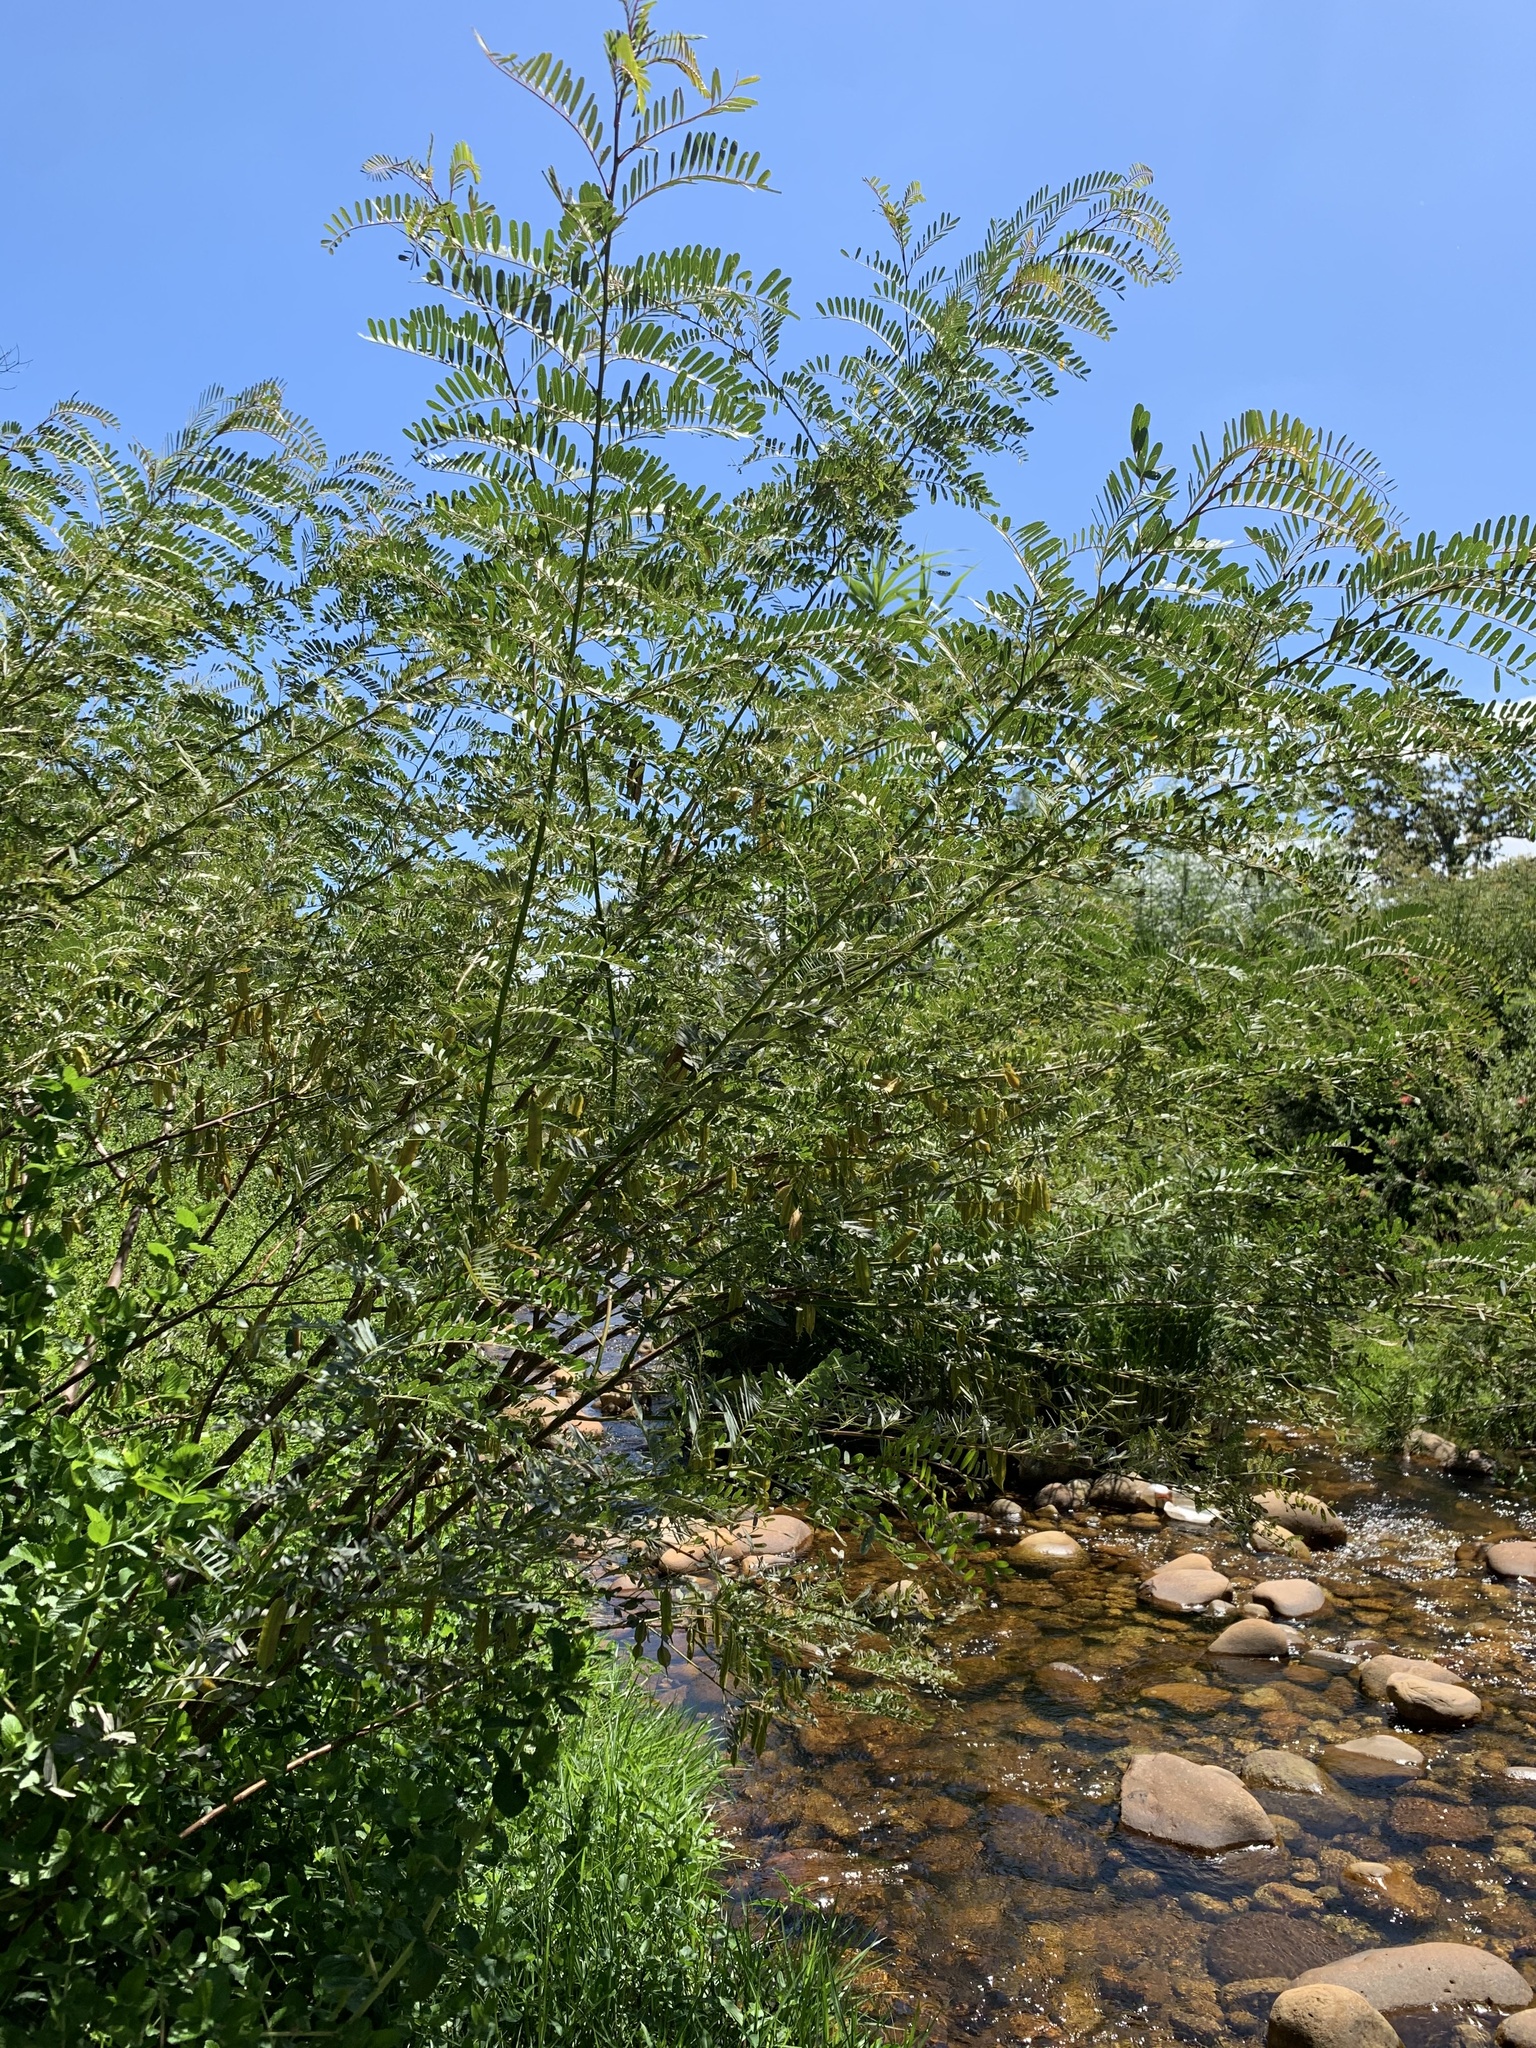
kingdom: Plantae
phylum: Tracheophyta
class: Magnoliopsida
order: Fabales
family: Fabaceae
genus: Sesbania
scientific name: Sesbania punicea
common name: Rattlebox
